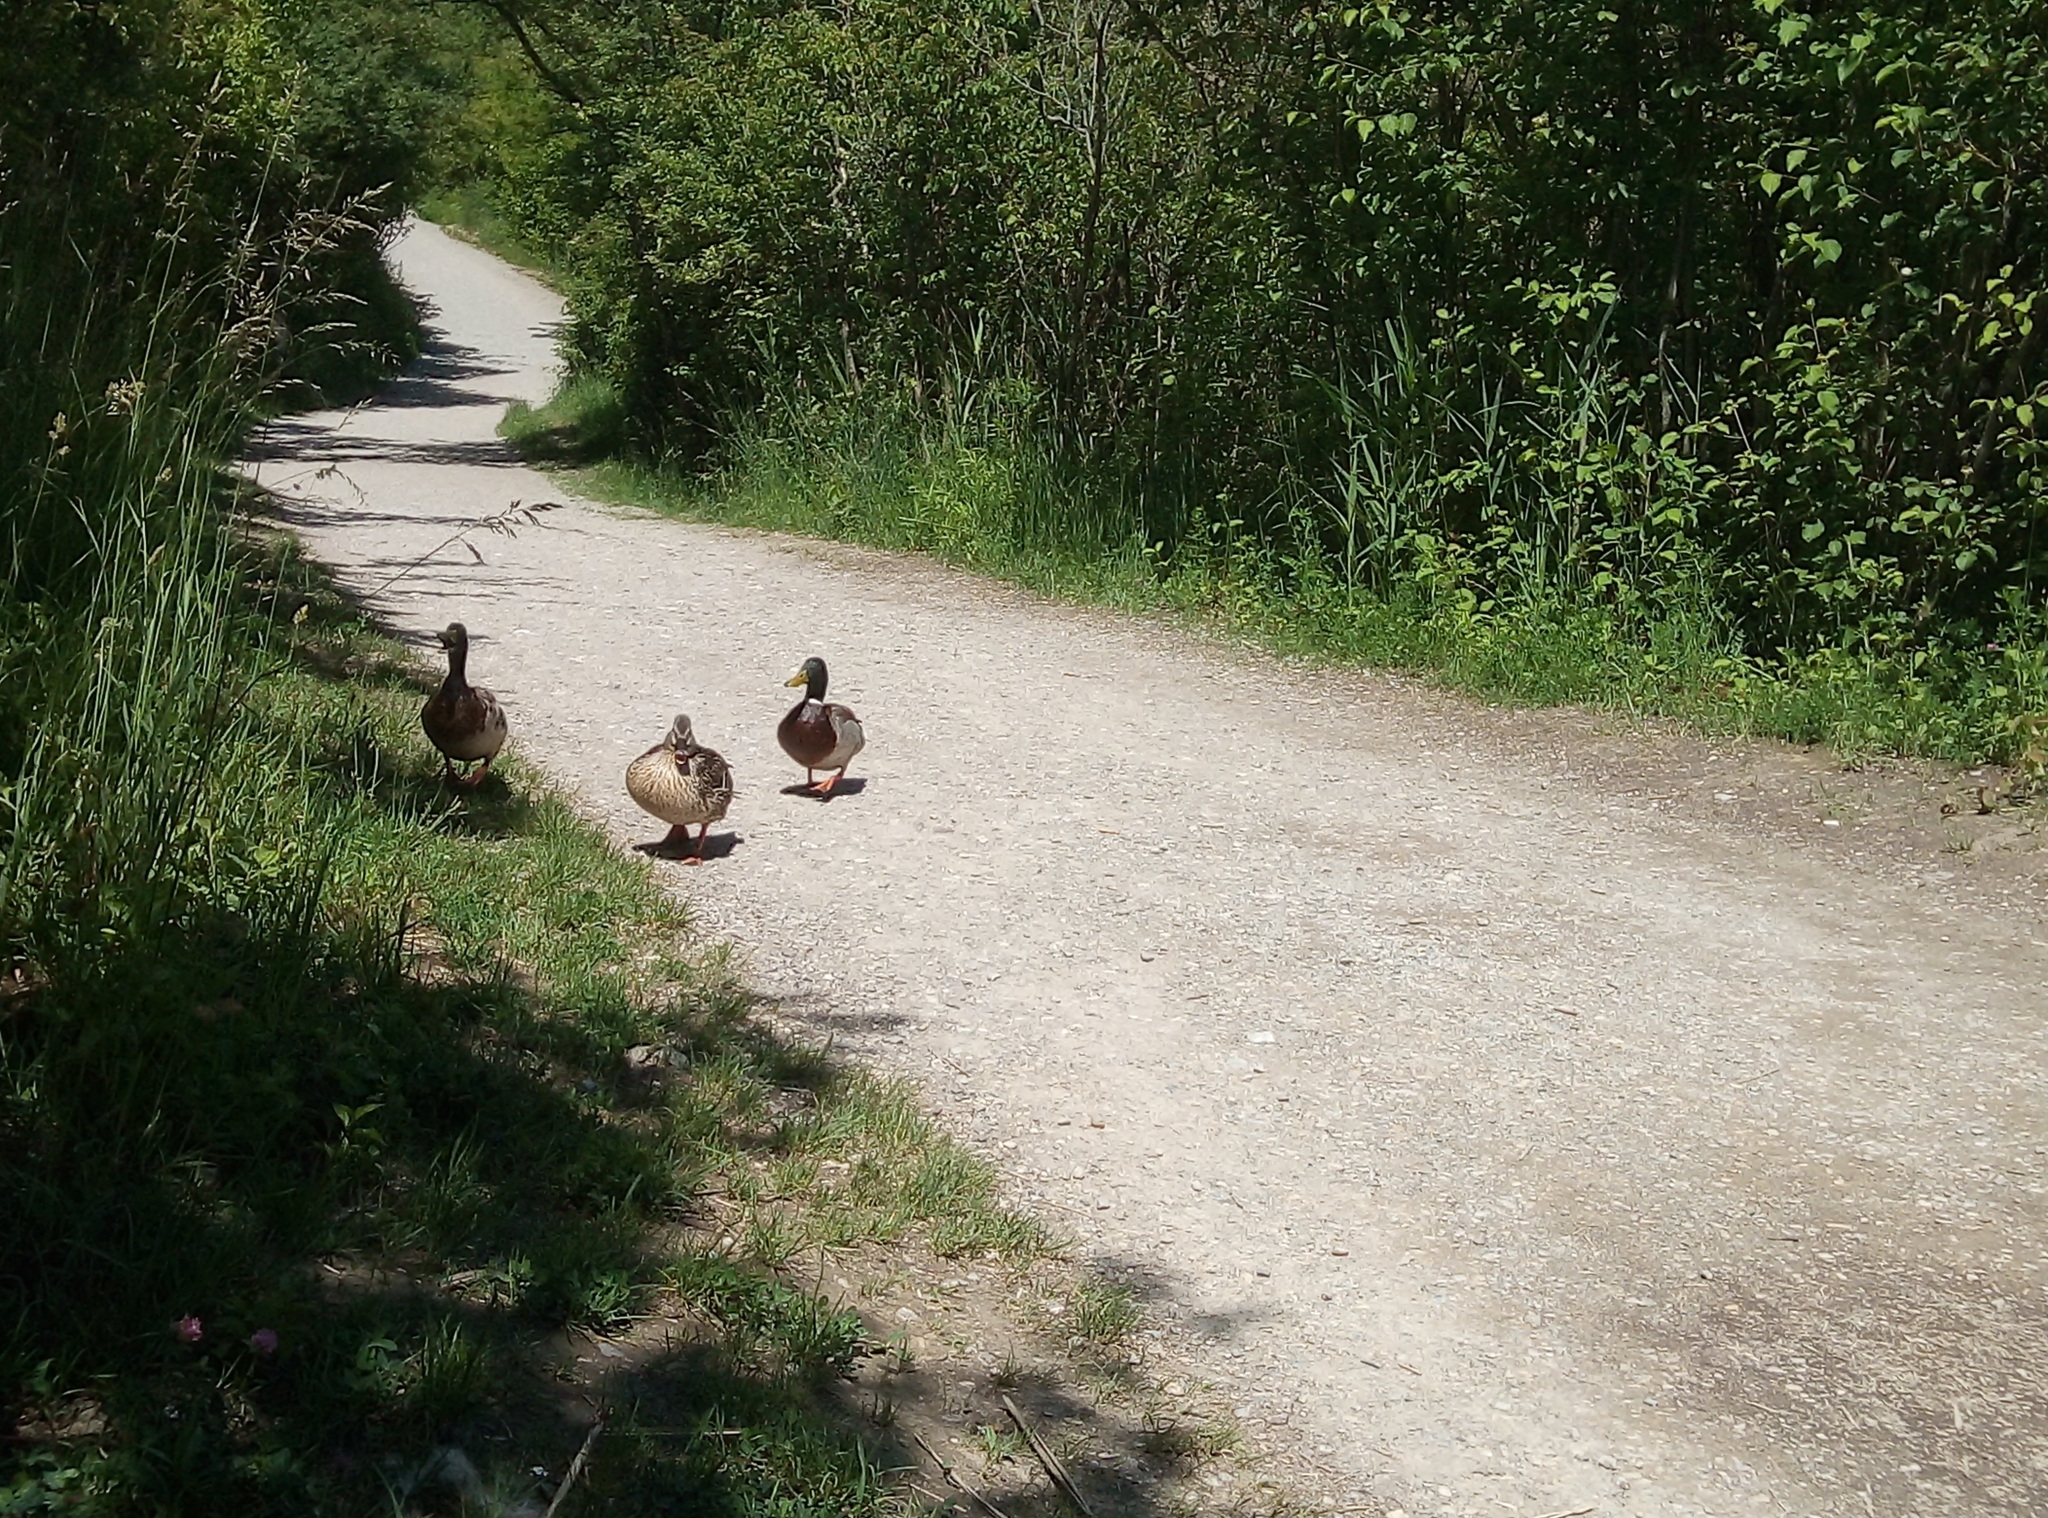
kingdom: Animalia
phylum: Chordata
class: Aves
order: Anseriformes
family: Anatidae
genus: Anas
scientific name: Anas platyrhynchos
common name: Mallard
